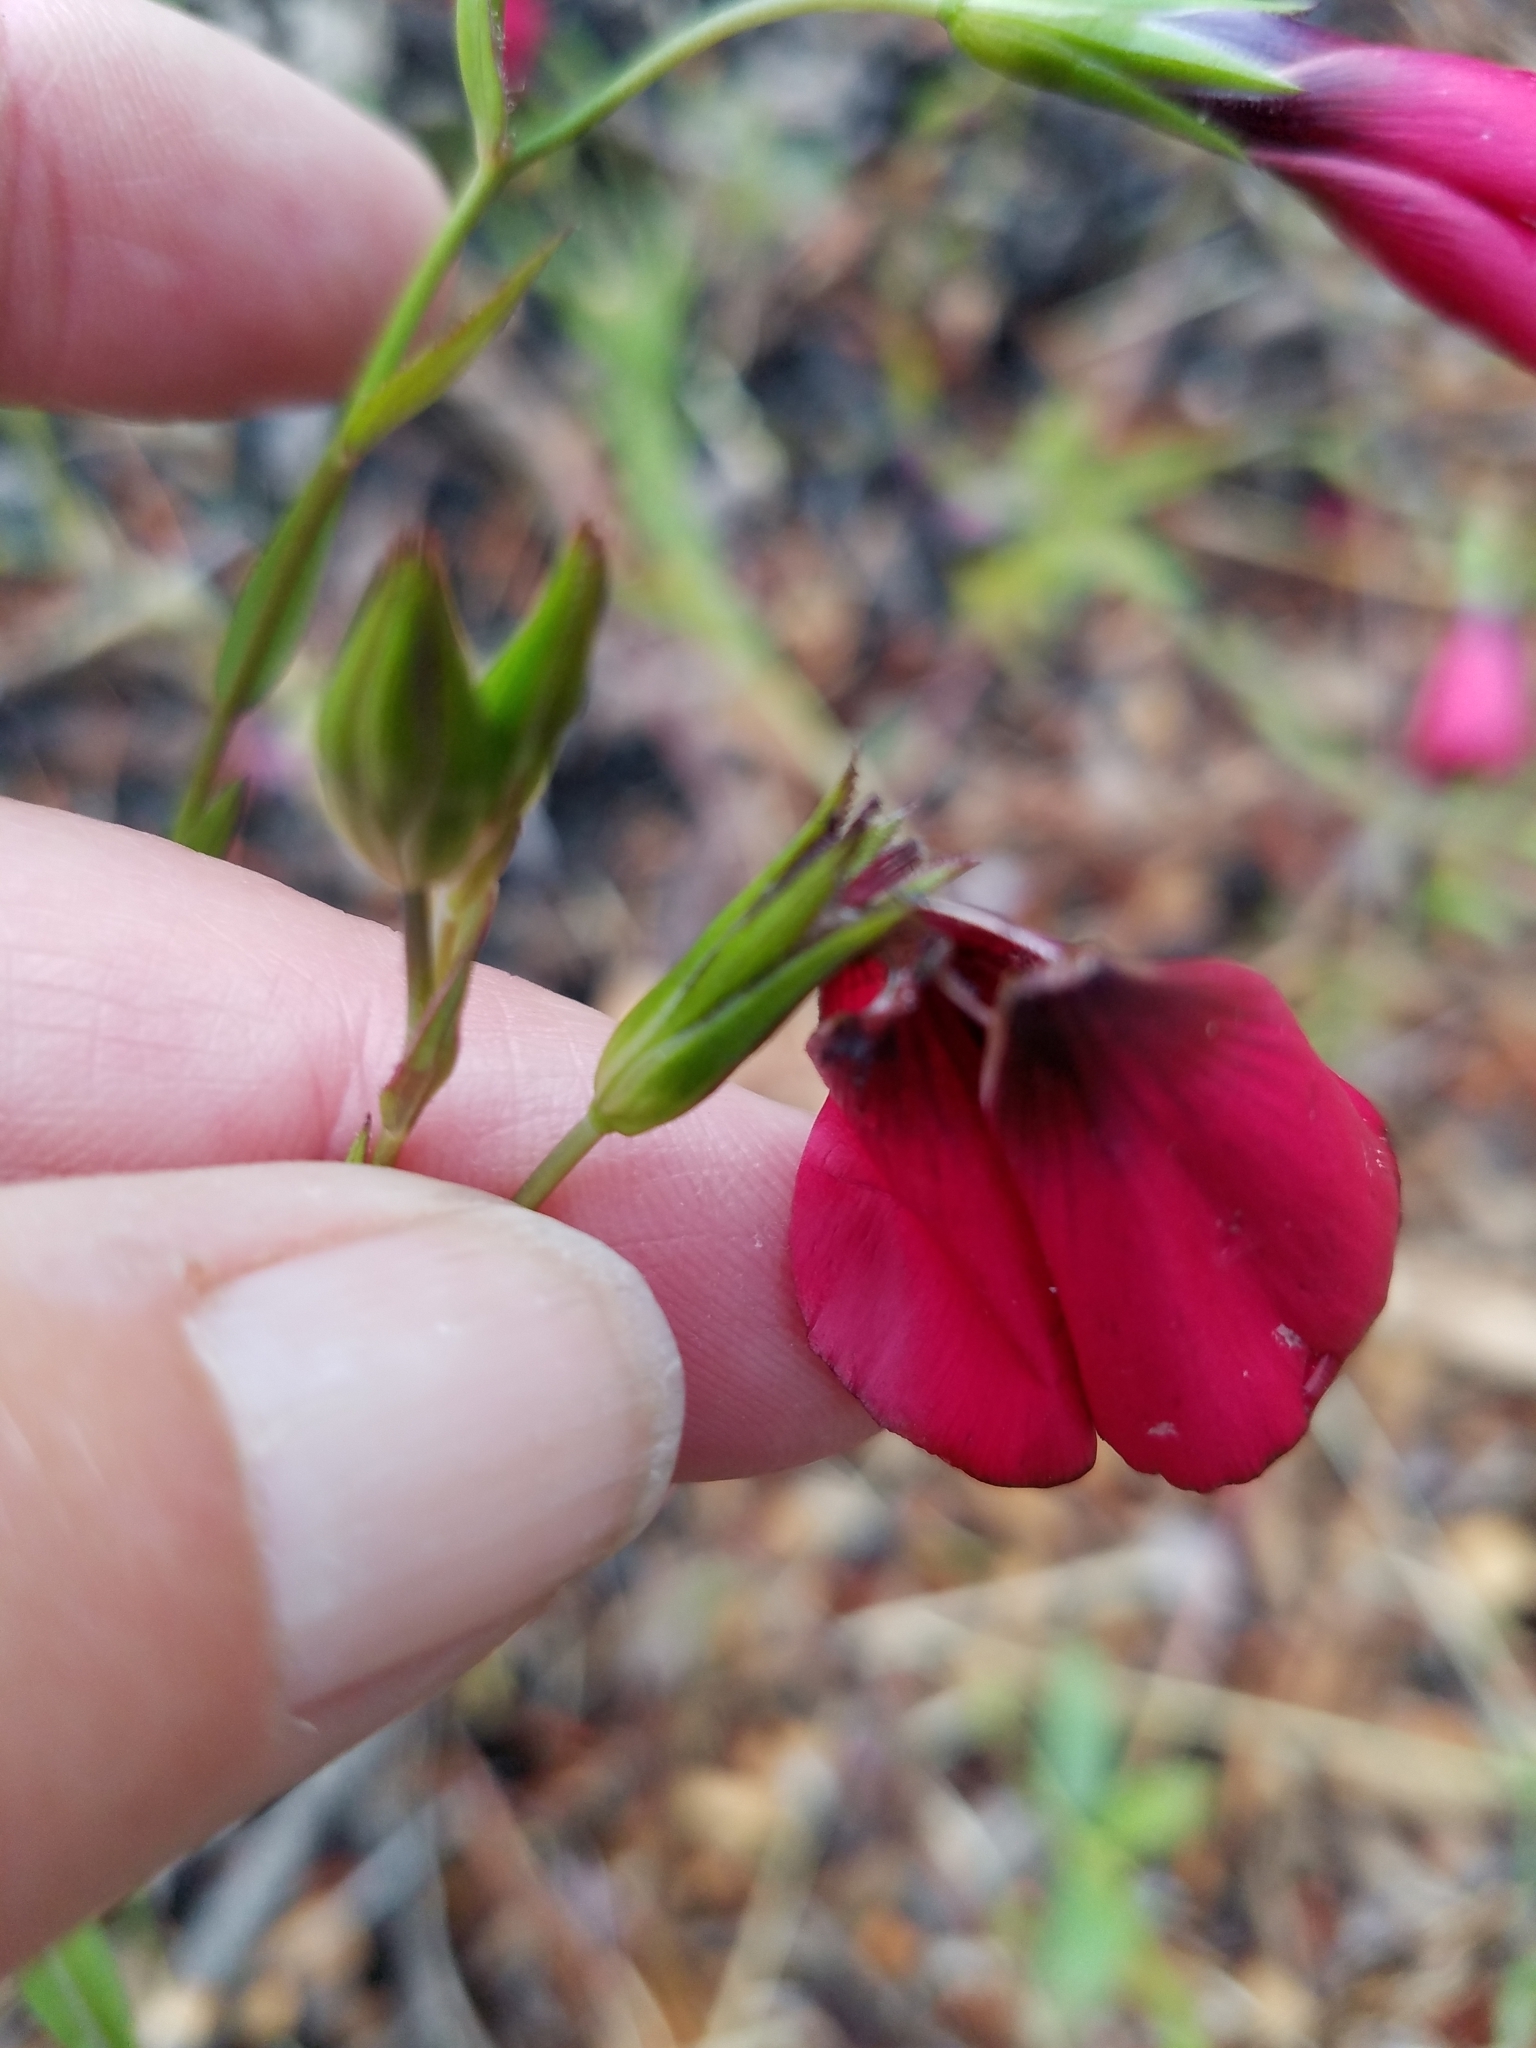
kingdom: Plantae
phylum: Tracheophyta
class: Magnoliopsida
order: Malpighiales
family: Linaceae
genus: Linum
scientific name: Linum grandiflorum
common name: Crimson flax
